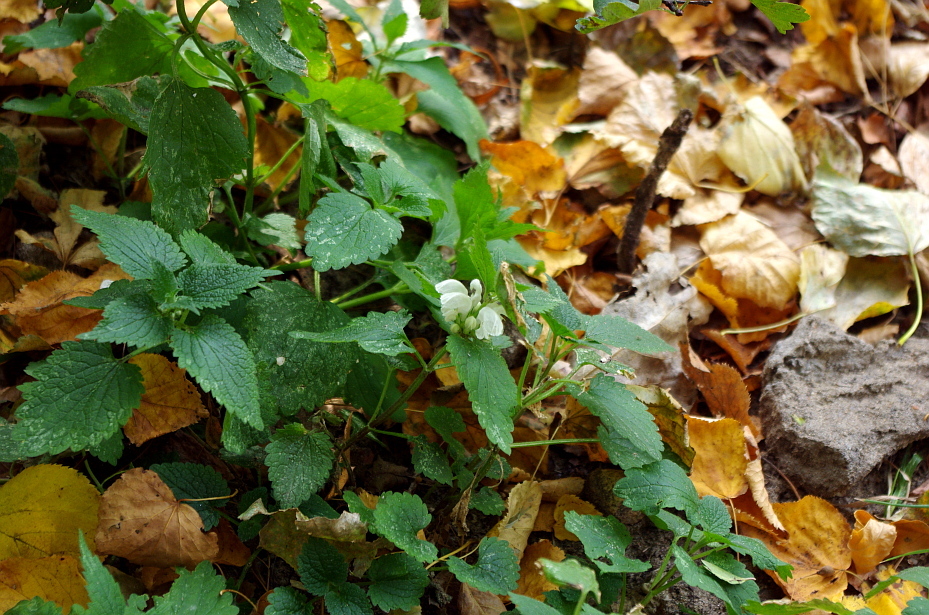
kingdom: Plantae
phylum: Tracheophyta
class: Magnoliopsida
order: Lamiales
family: Lamiaceae
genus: Lamium
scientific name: Lamium album
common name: White dead-nettle
